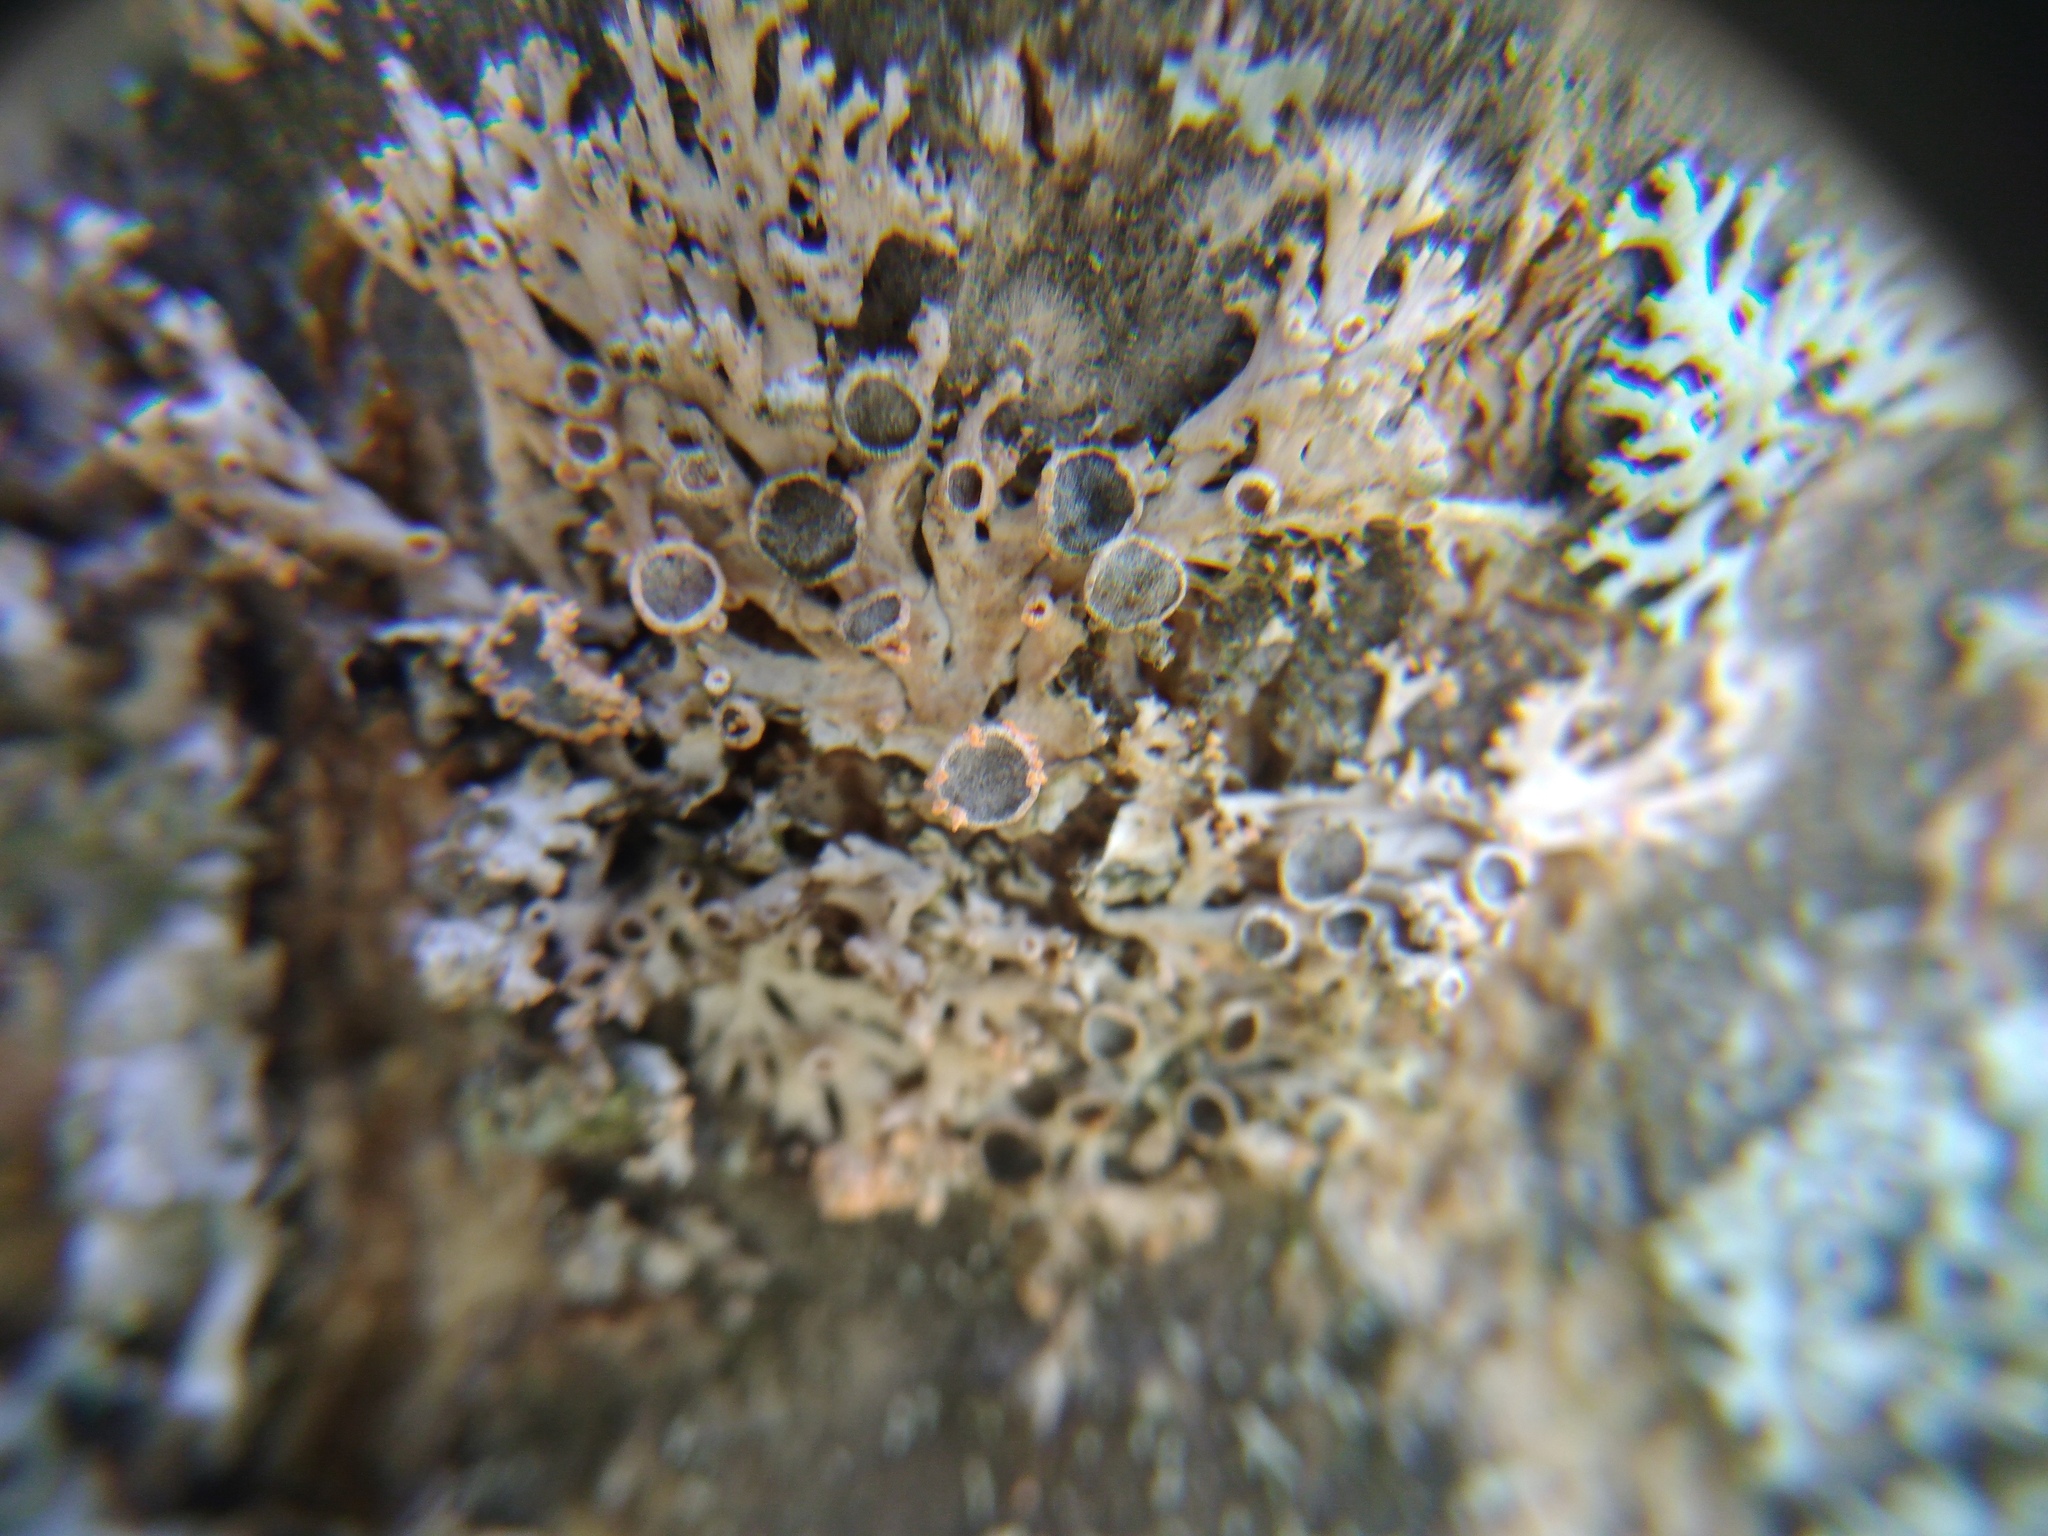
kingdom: Fungi
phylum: Basidiomycota
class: Agaricomycetes
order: Corticiales
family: Corticiaceae
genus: Erythricium
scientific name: Erythricium aurantiacum
